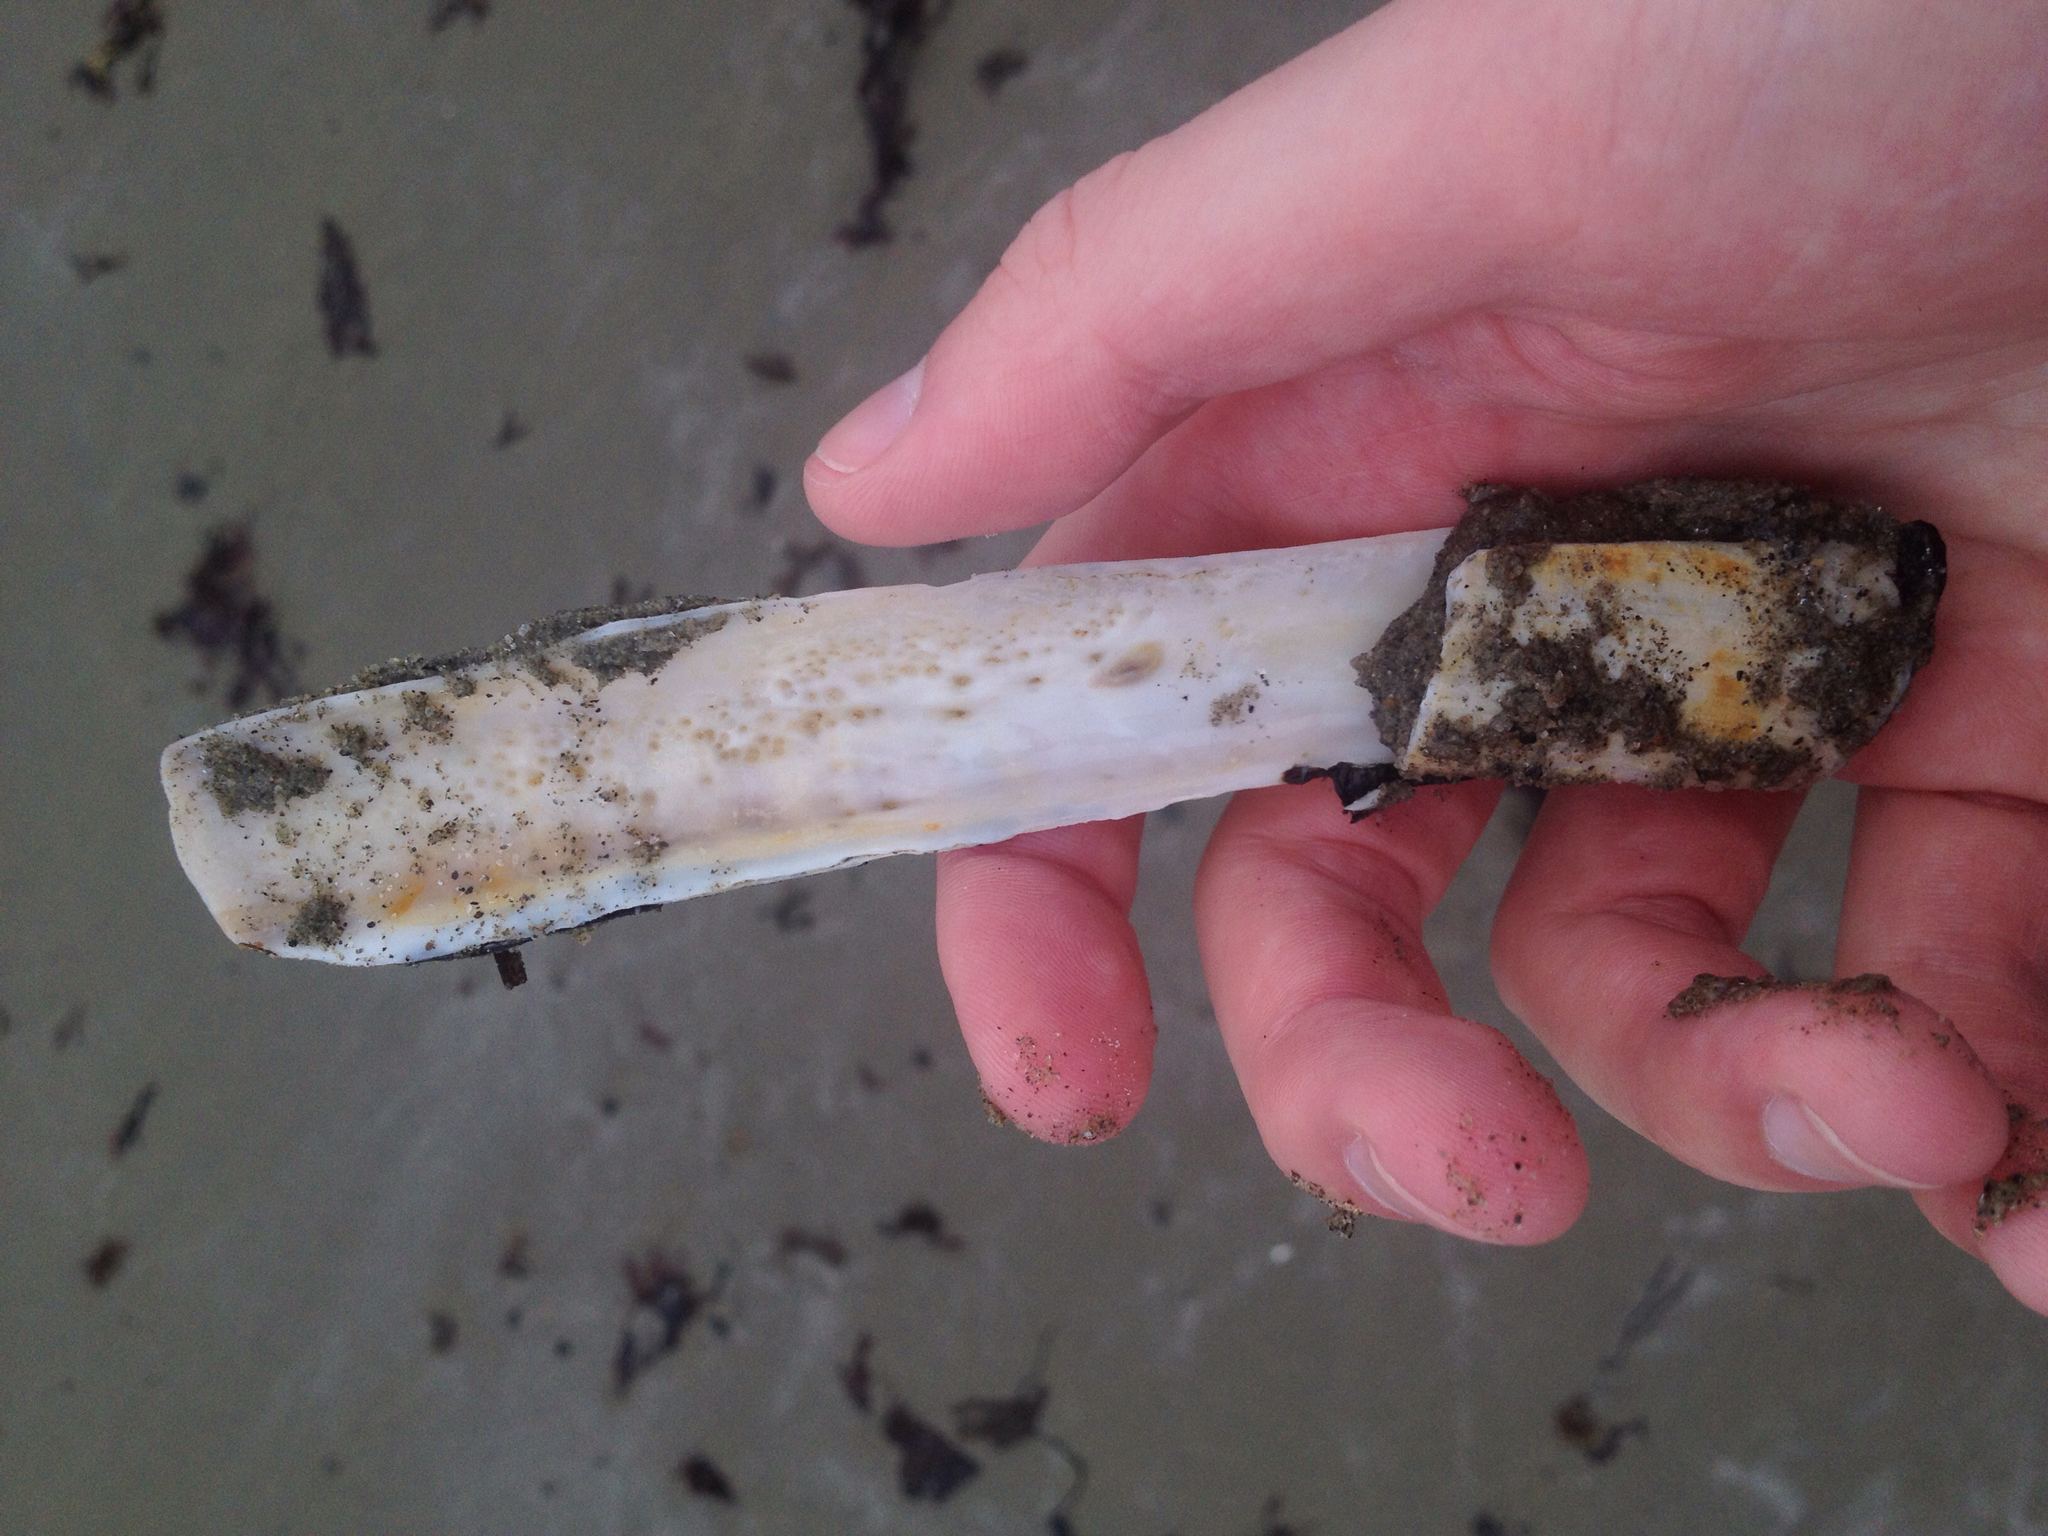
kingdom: Animalia
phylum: Mollusca
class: Bivalvia
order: Adapedonta
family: Pharidae
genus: Ensis
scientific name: Ensis leei
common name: American jack knife clam
